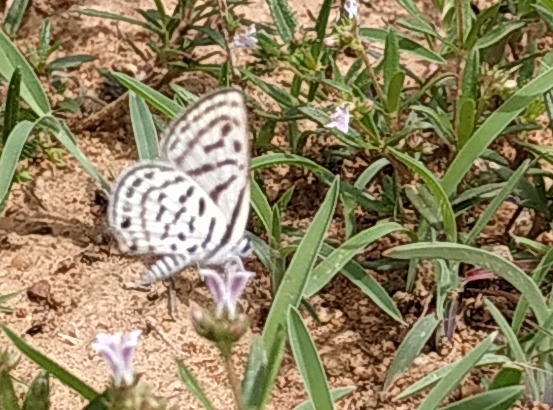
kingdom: Animalia
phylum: Arthropoda
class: Insecta
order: Lepidoptera
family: Lycaenidae
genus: Tarucus
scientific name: Tarucus balkanica
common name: Little tiger blue
